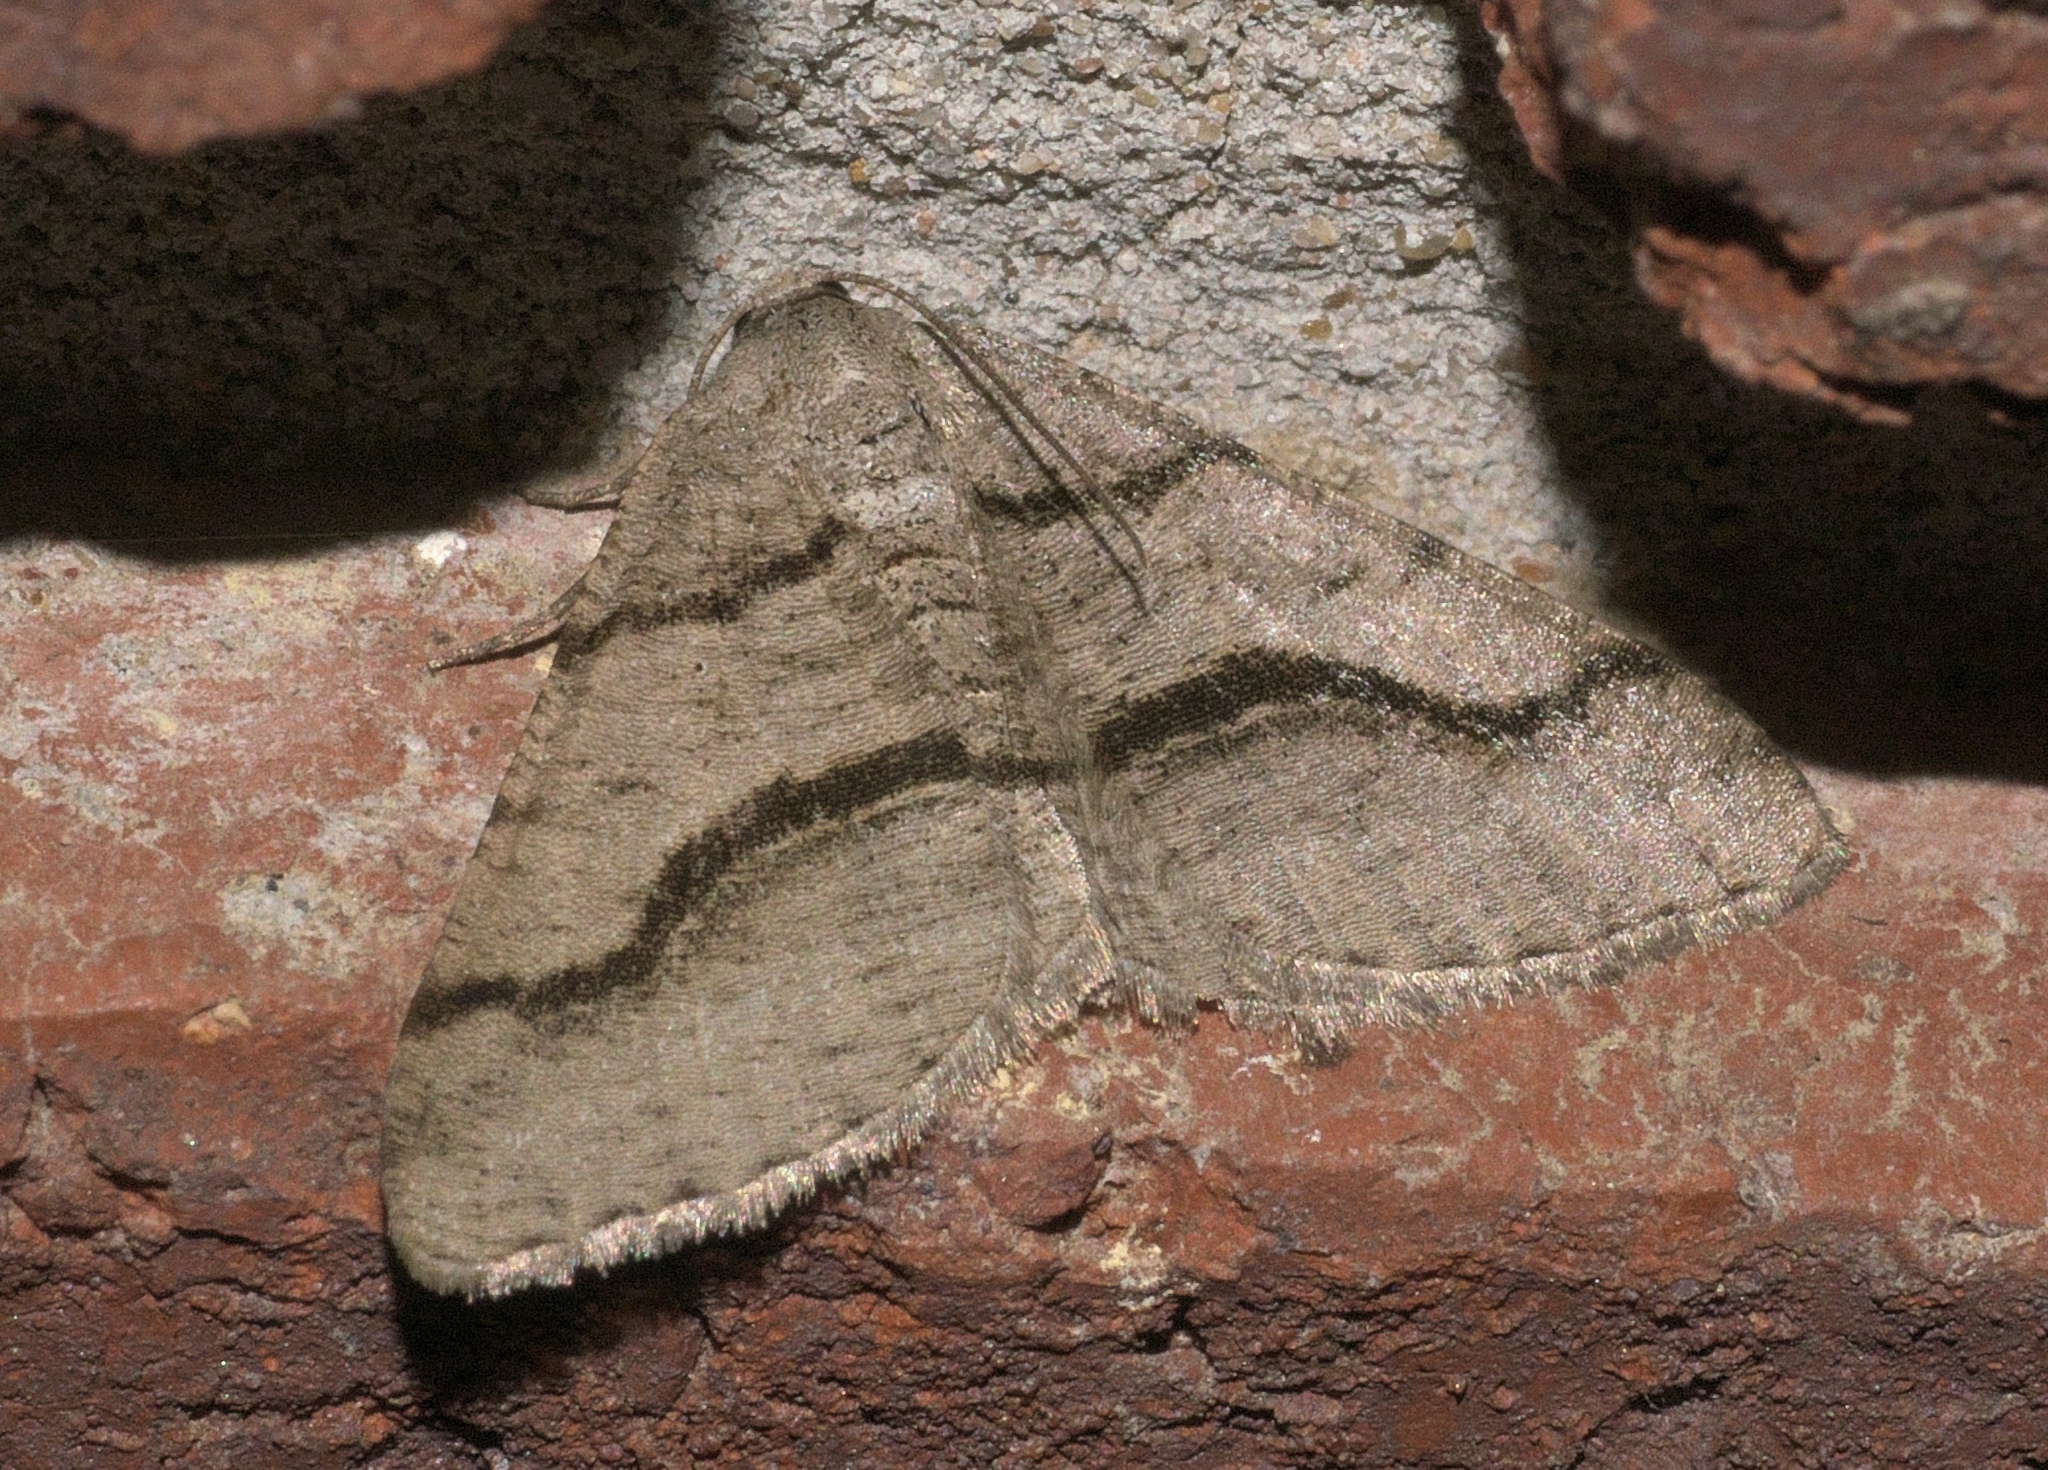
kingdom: Animalia
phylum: Arthropoda
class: Insecta
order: Lepidoptera
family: Geometridae
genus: Digrammia
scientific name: Digrammia continuata
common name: Curve-lined angle
